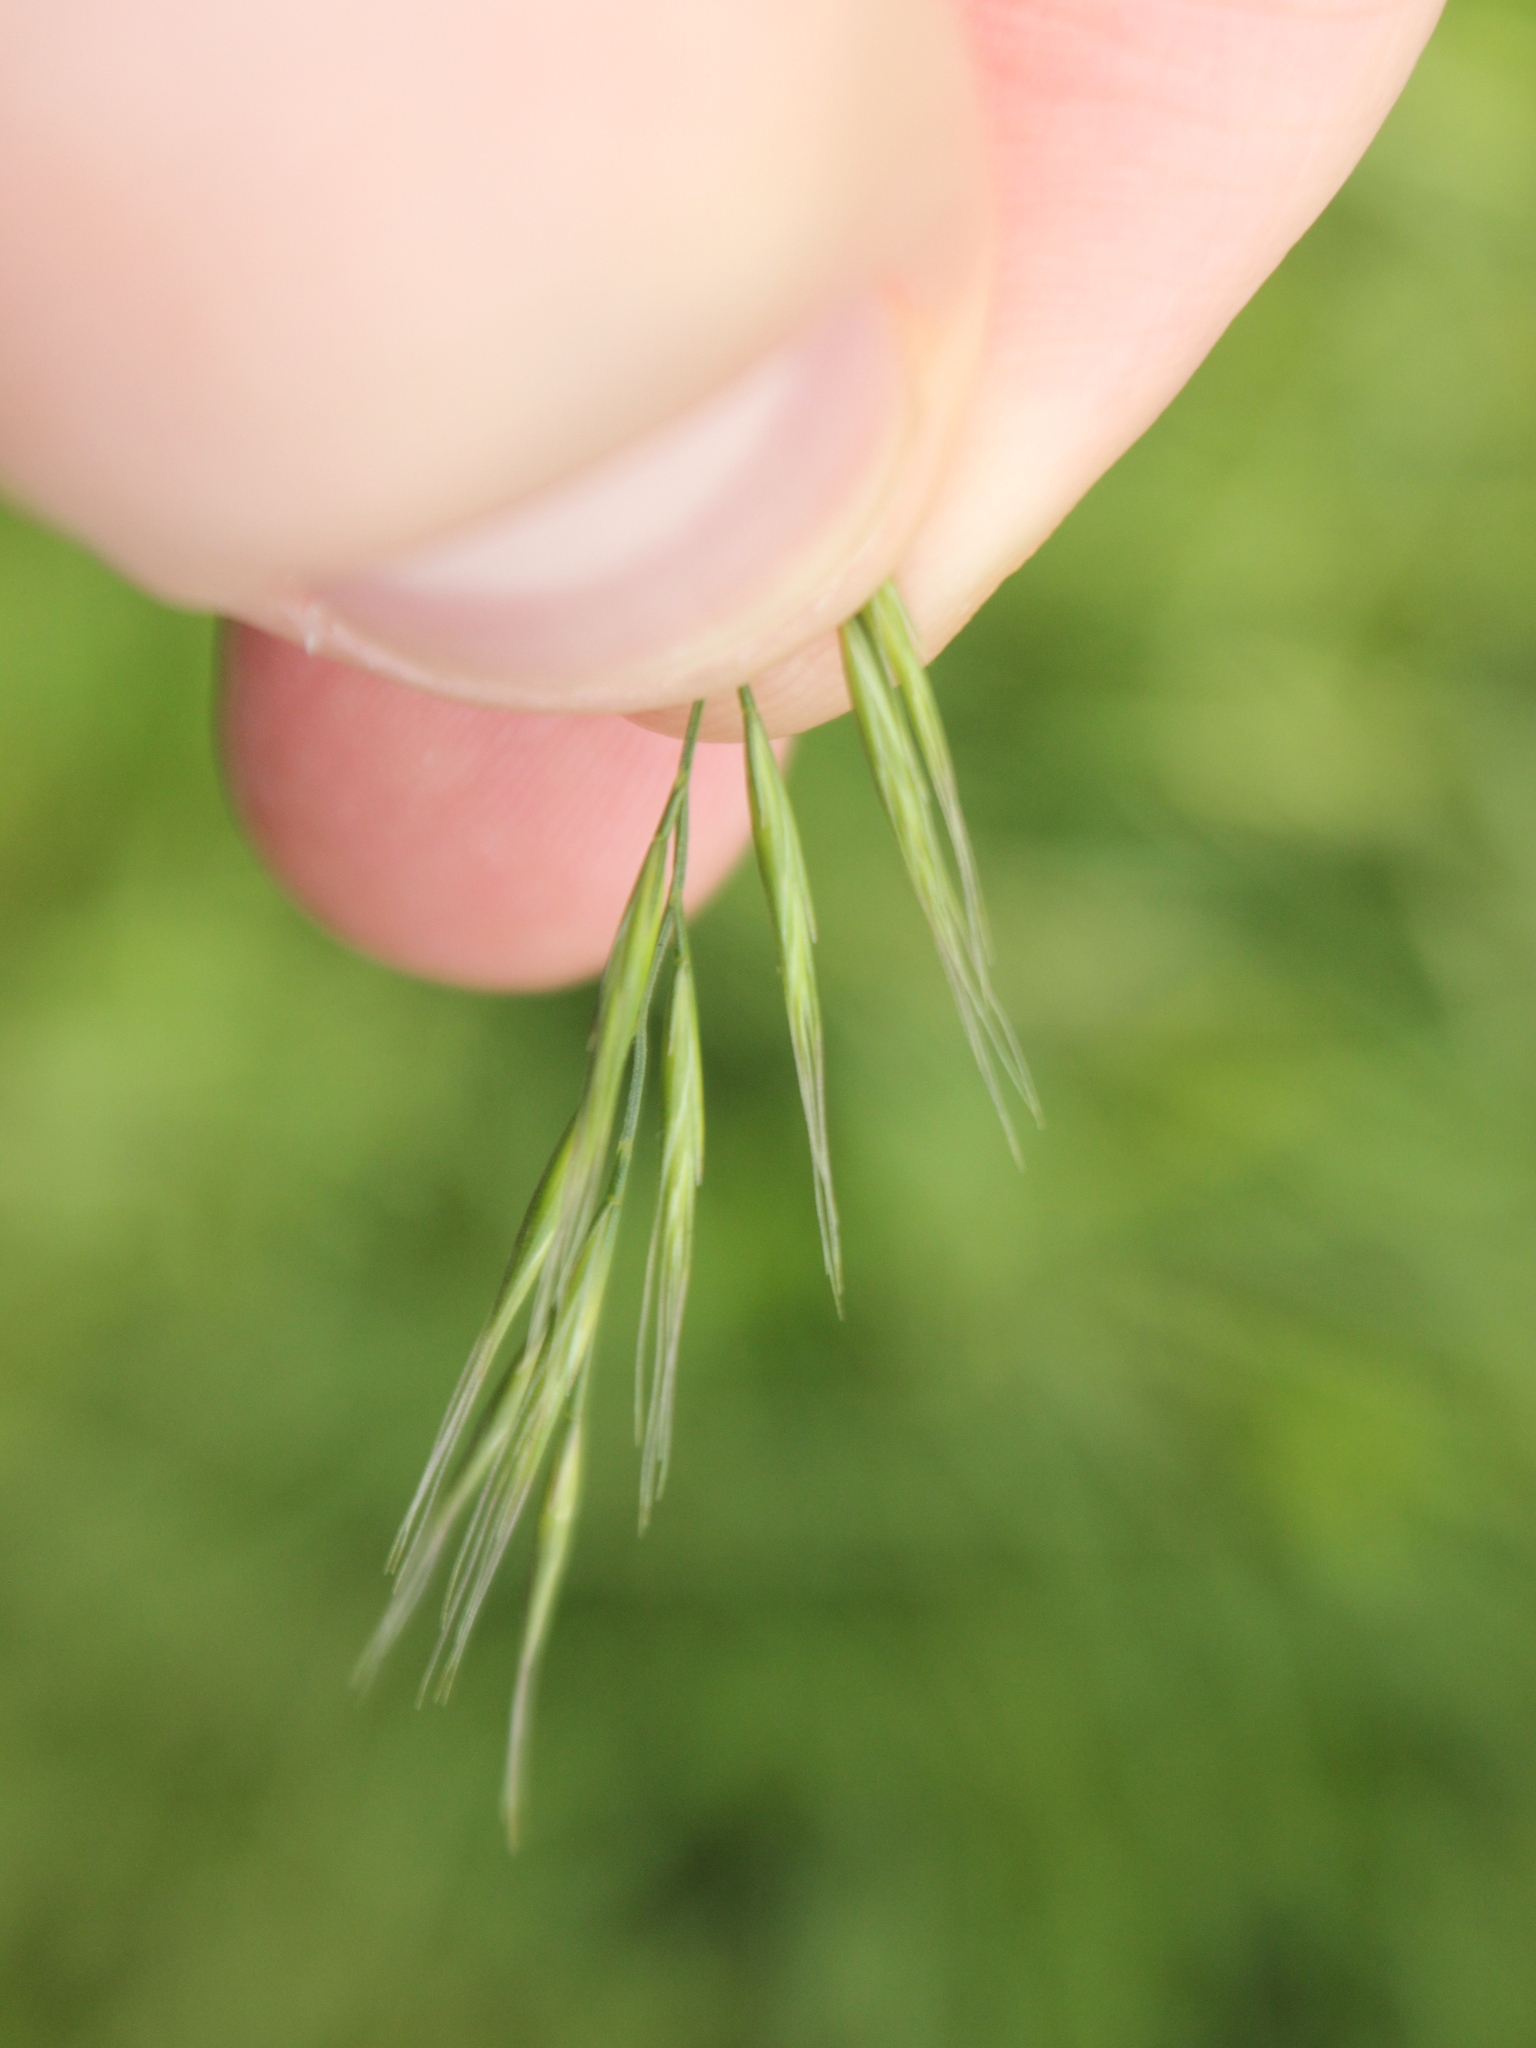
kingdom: Plantae
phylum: Tracheophyta
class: Liliopsida
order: Poales
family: Poaceae
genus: Festuca
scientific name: Festuca bromoides
